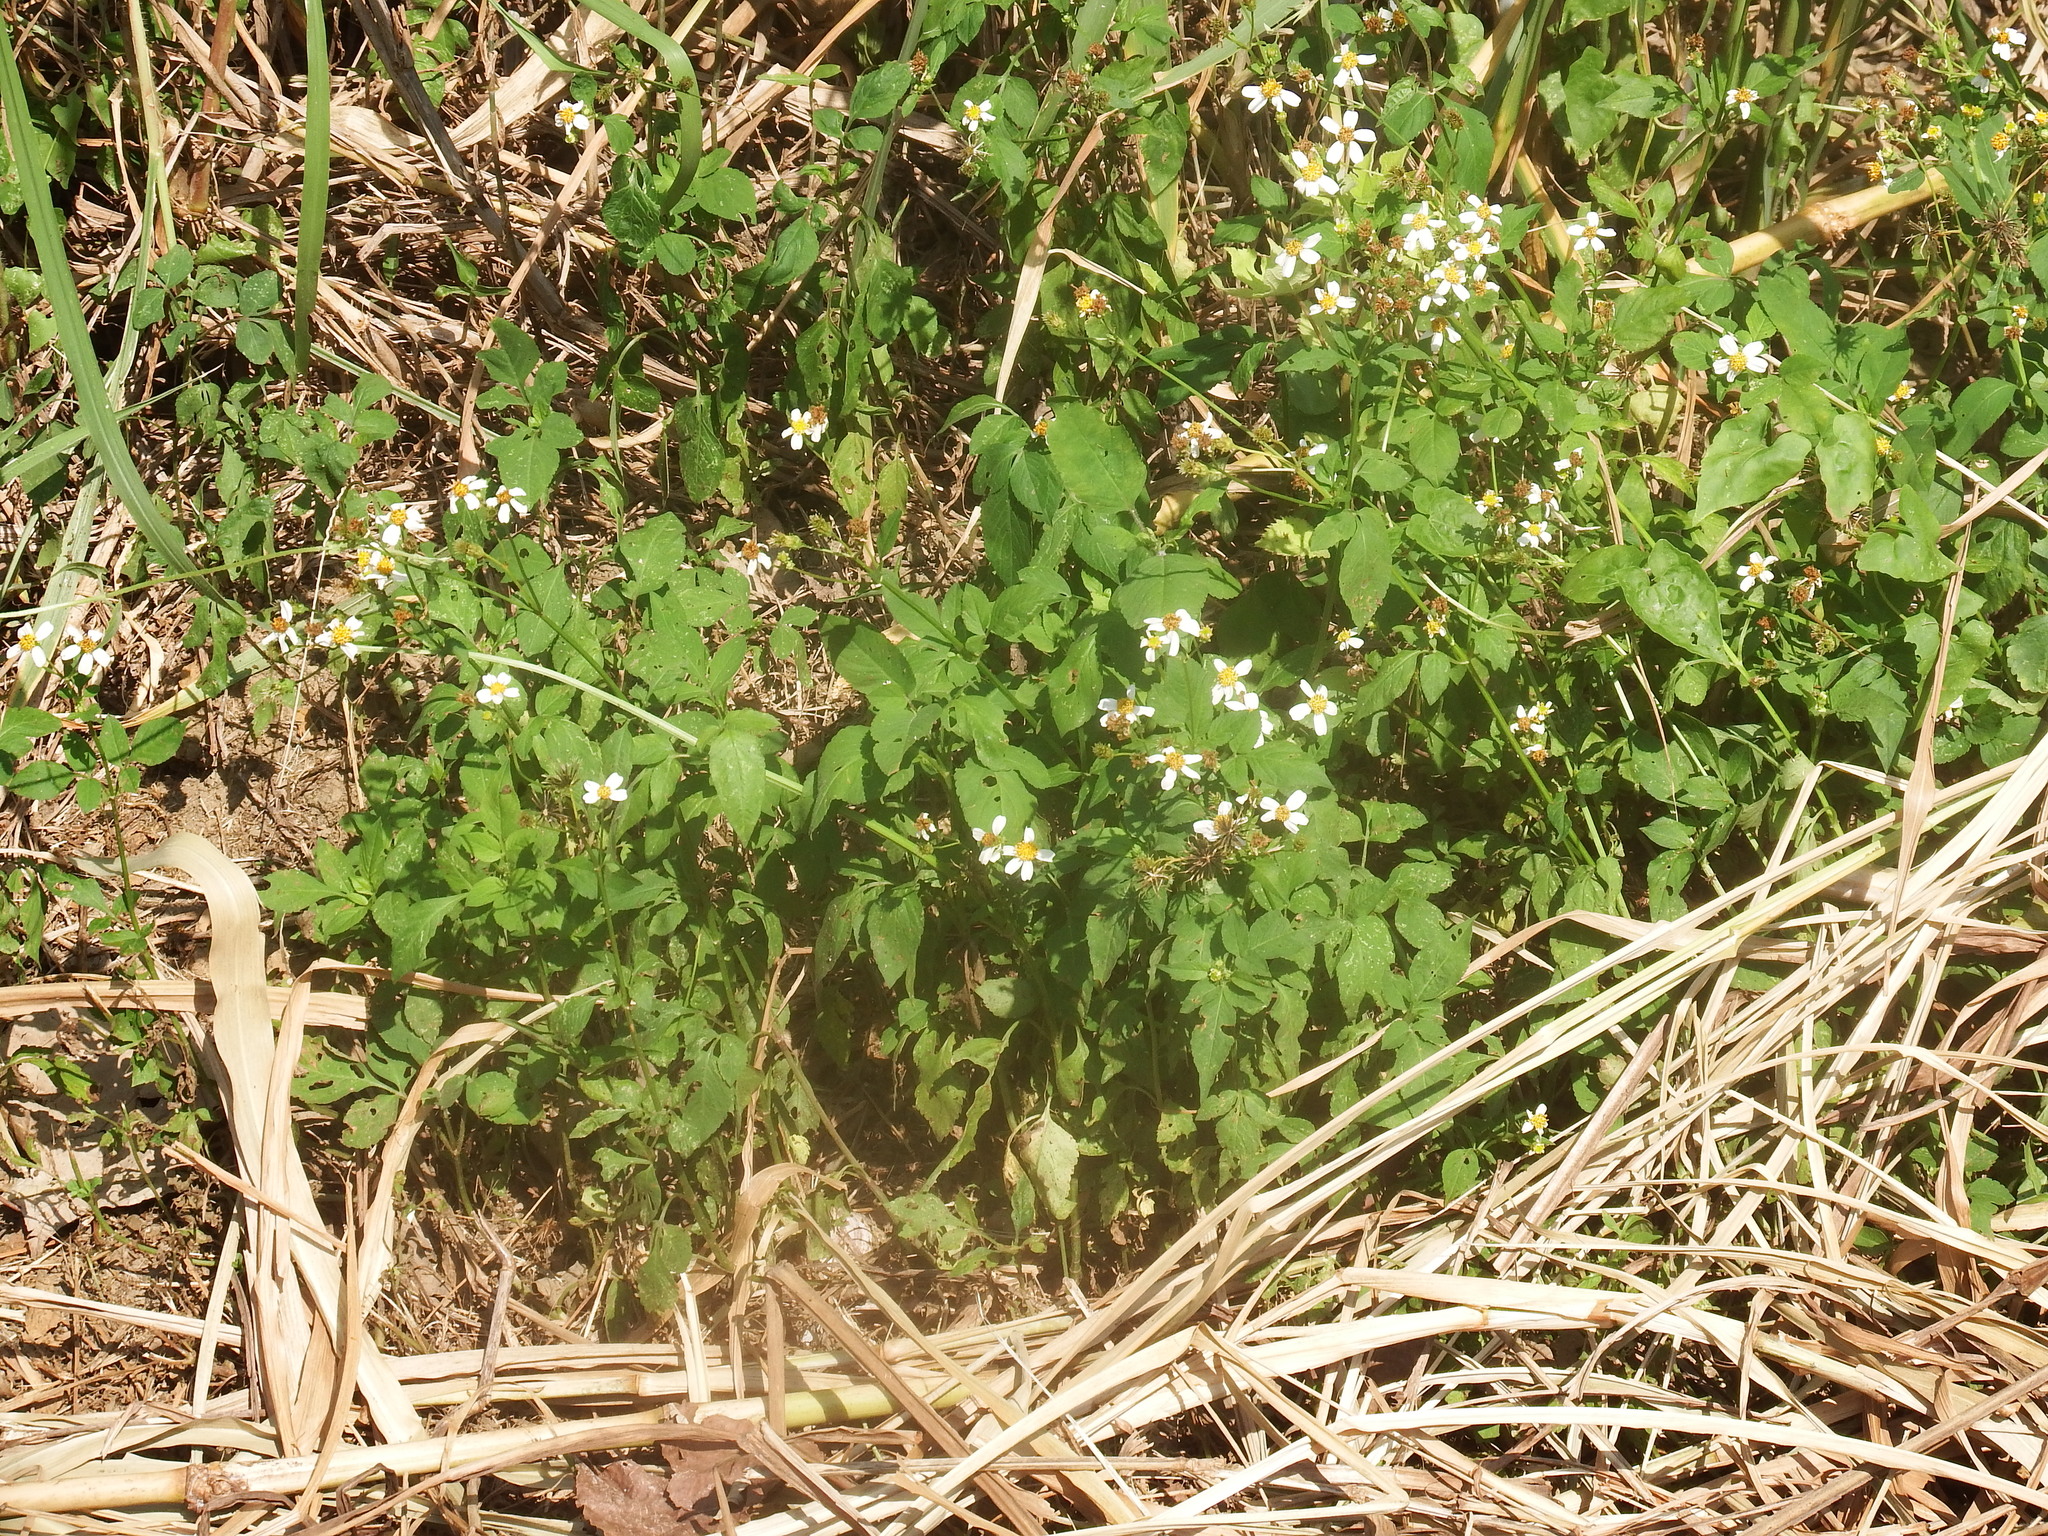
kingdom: Plantae
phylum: Tracheophyta
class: Magnoliopsida
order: Asterales
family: Asteraceae
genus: Bidens
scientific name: Bidens alba
